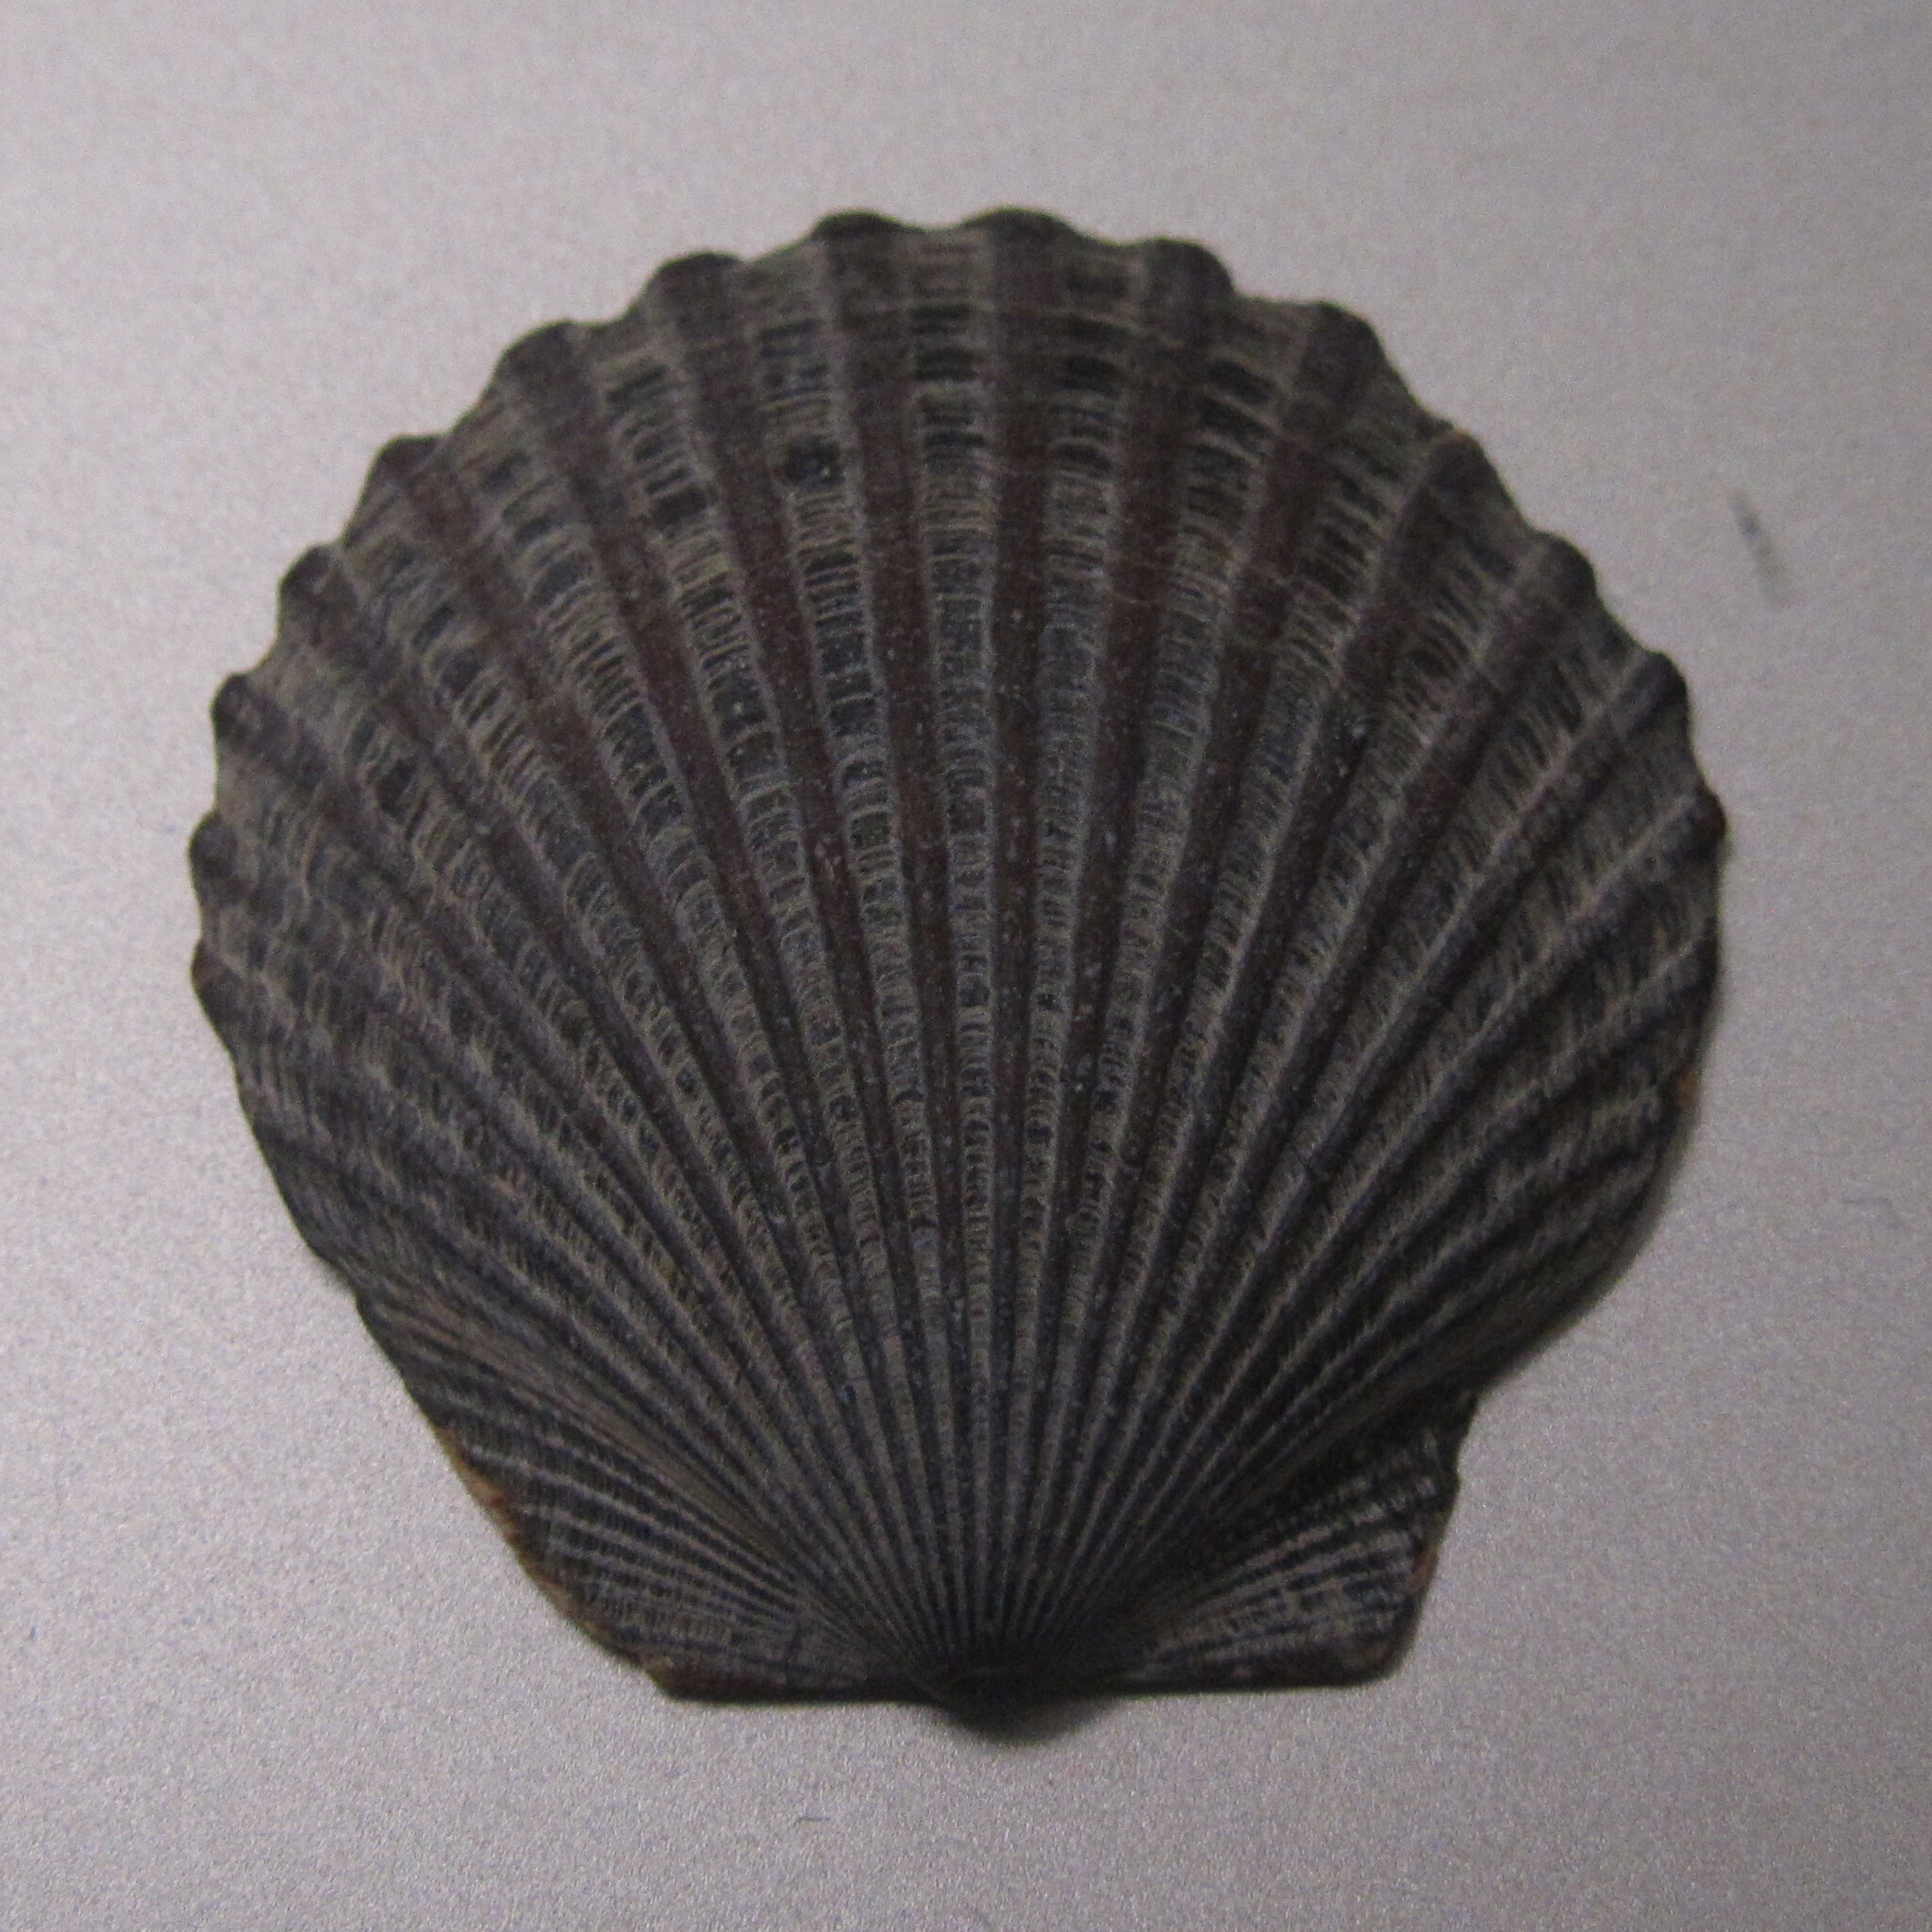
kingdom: Animalia
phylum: Mollusca
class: Bivalvia
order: Pectinida
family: Pectinidae
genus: Argopecten
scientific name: Argopecten irradians
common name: Atlantic bay scallop
